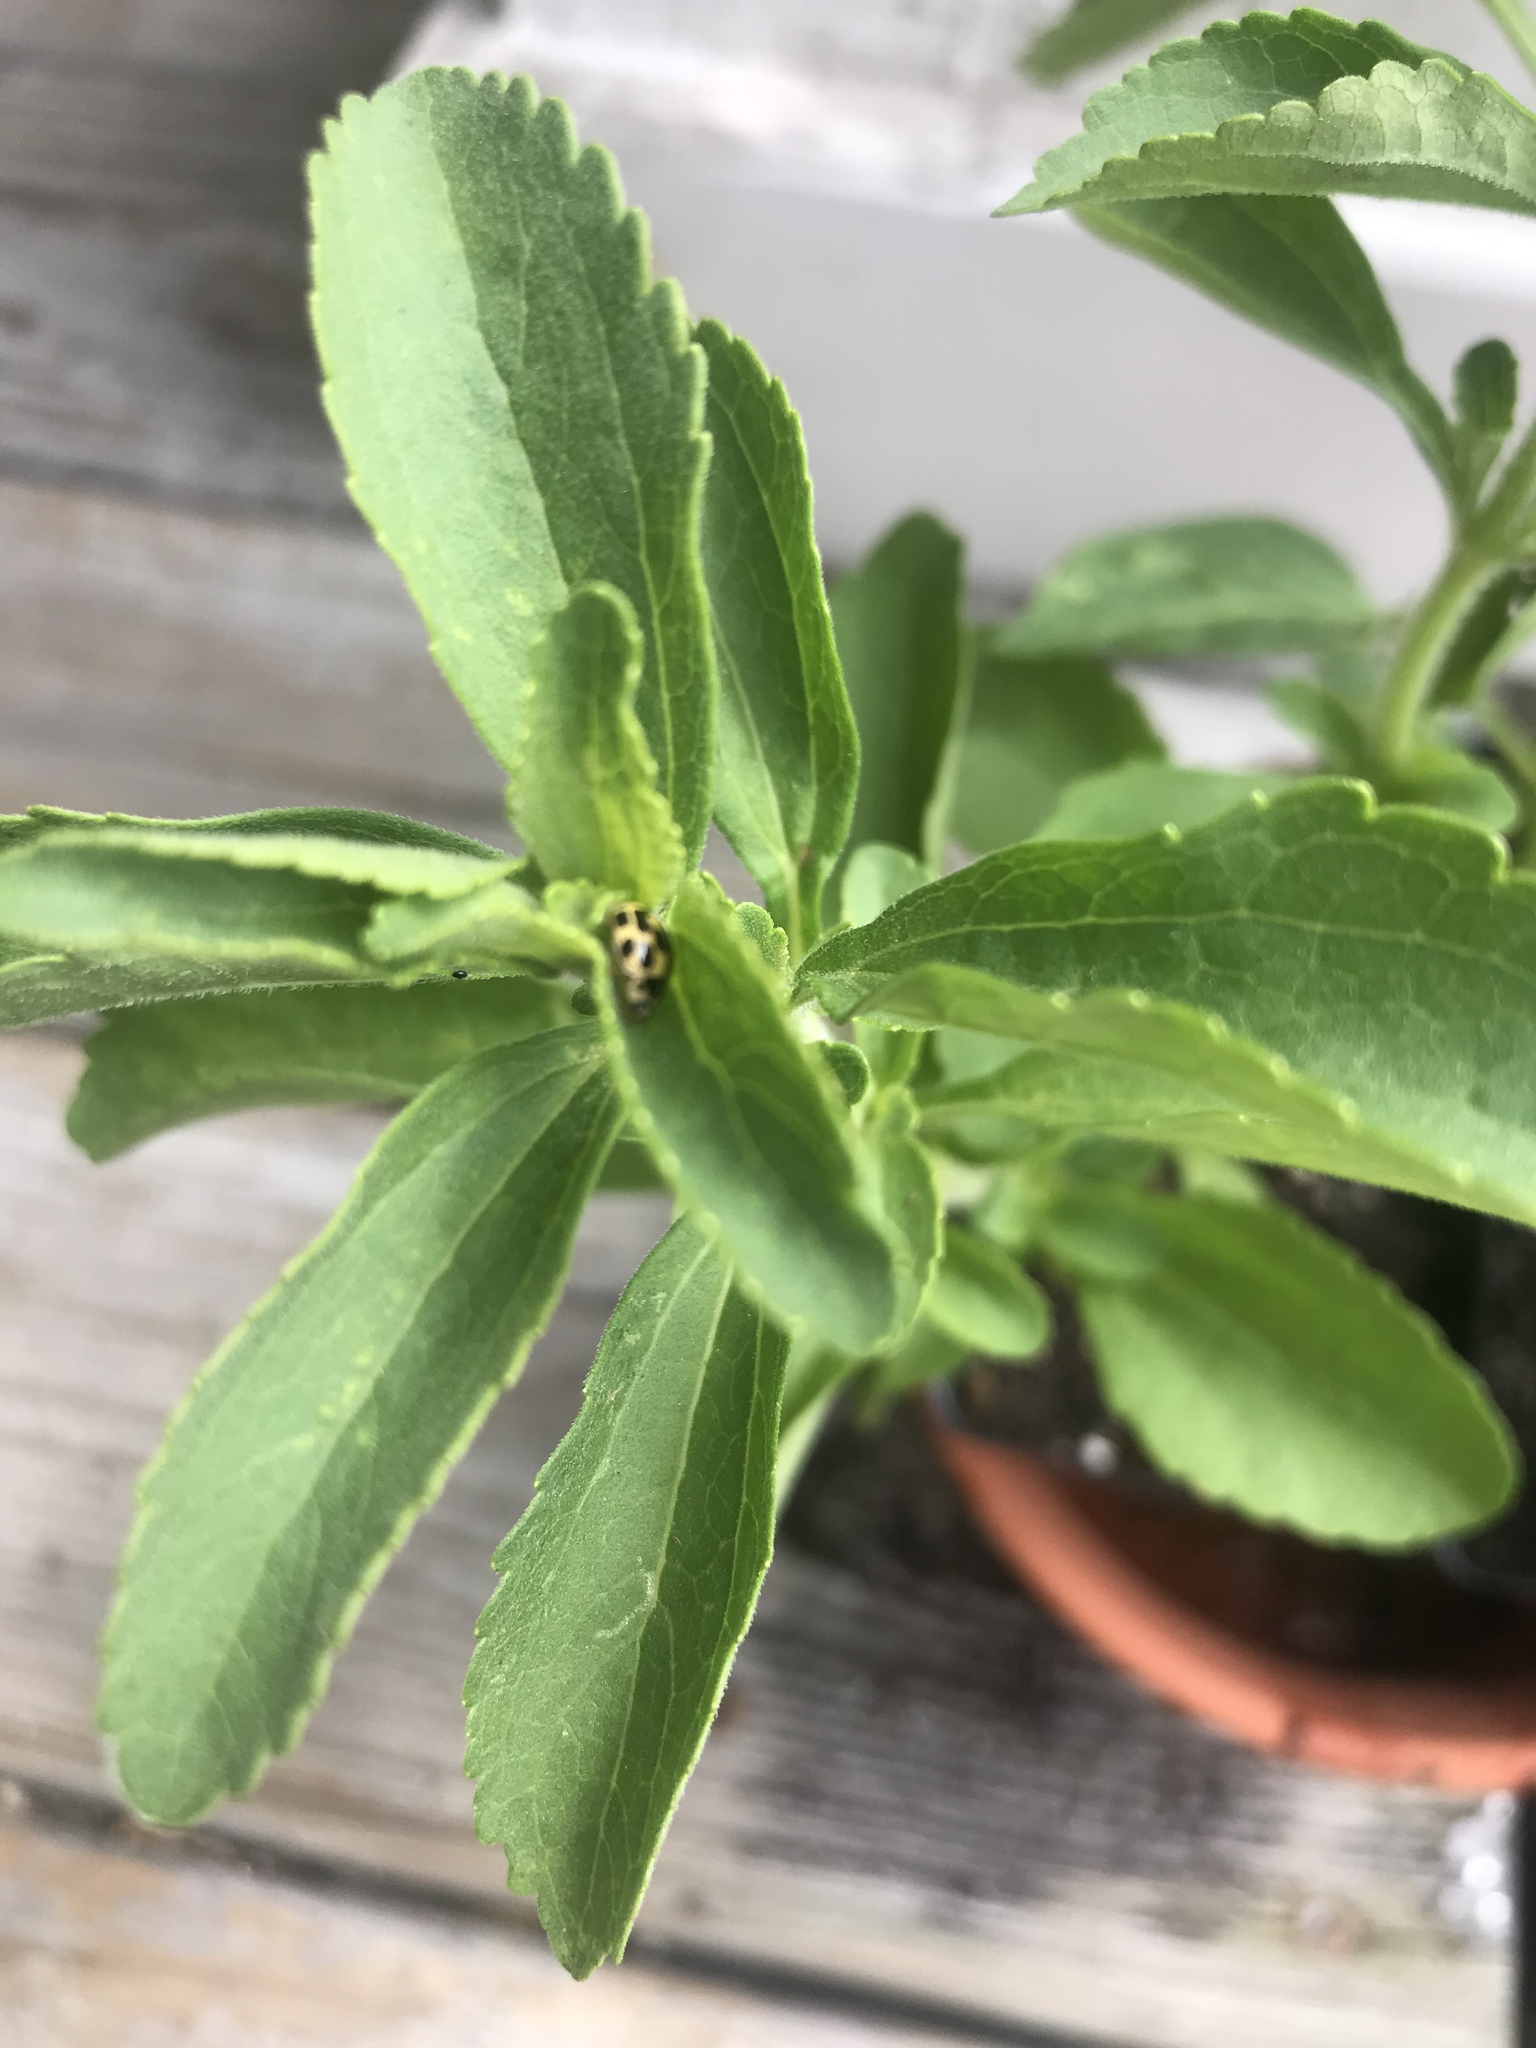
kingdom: Animalia
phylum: Arthropoda
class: Insecta
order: Coleoptera
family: Coccinellidae
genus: Propylaea
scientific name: Propylaea quatuordecimpunctata
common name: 14-spotted ladybird beetle
